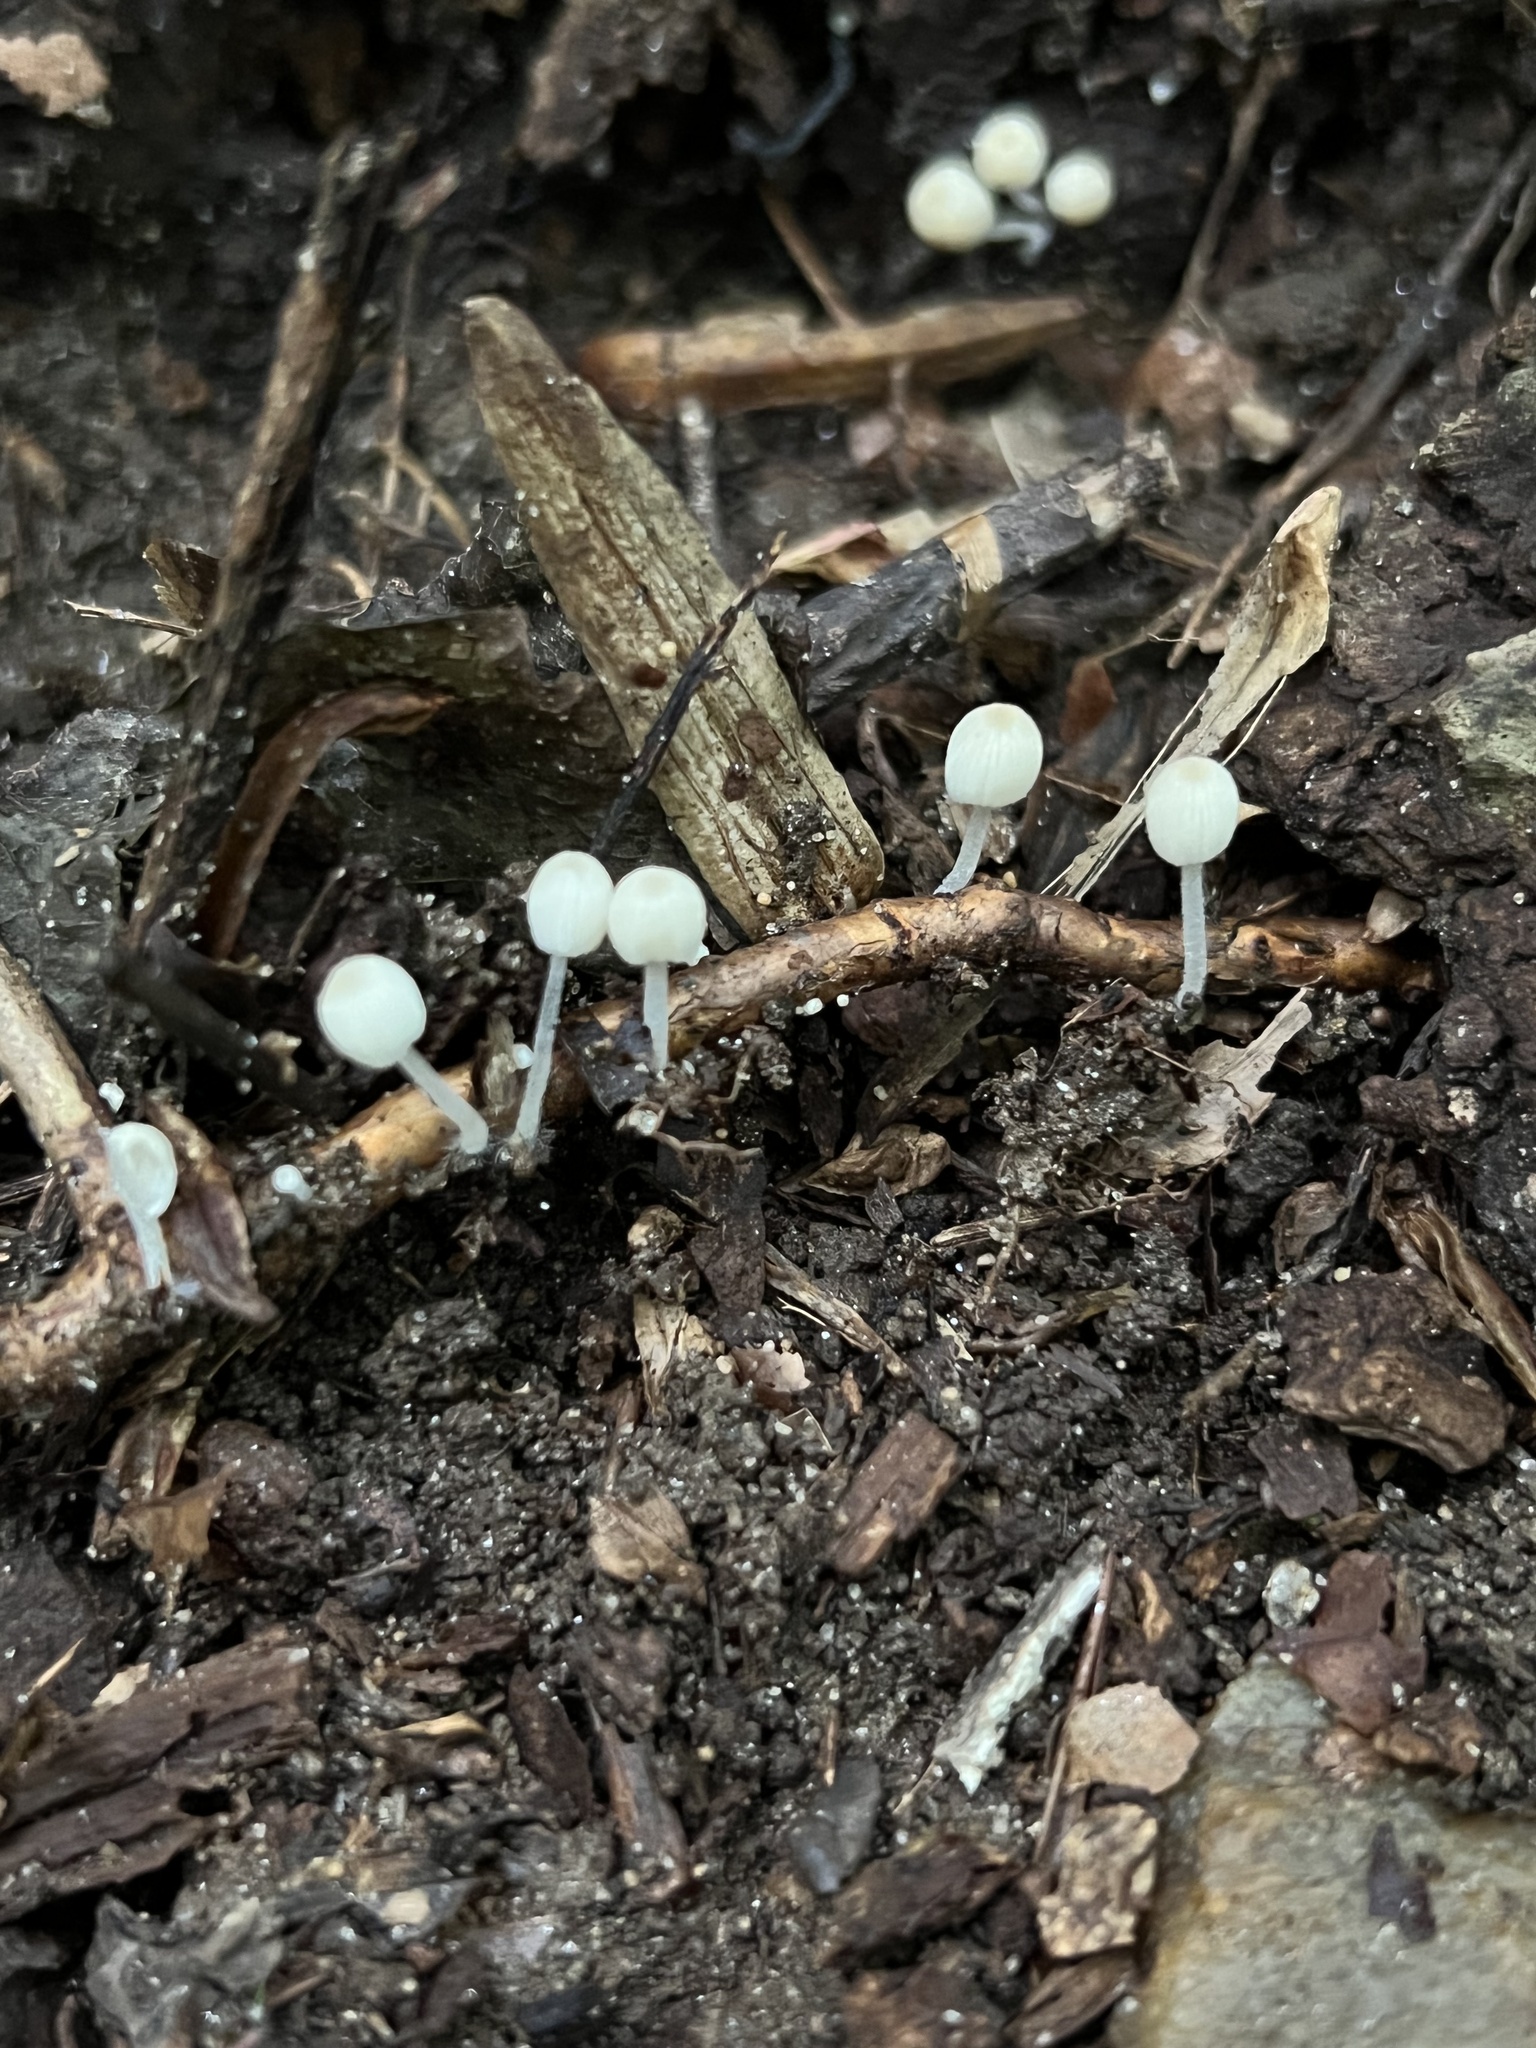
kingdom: Fungi
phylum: Basidiomycota
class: Agaricomycetes
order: Agaricales
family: Psathyrellaceae
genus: Coprinellus
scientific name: Coprinellus disseminatus
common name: Fairies' bonnets
